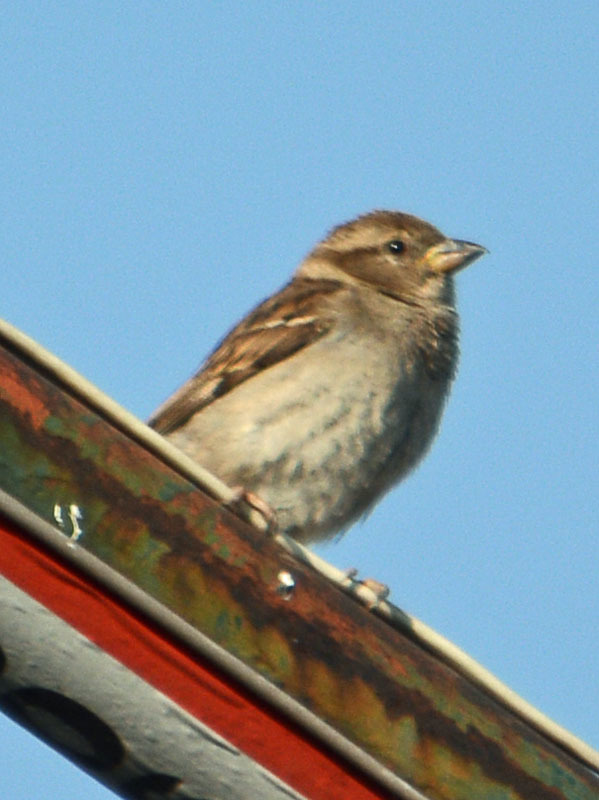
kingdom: Animalia
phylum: Chordata
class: Aves
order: Passeriformes
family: Passeridae
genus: Passer
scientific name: Passer domesticus
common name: House sparrow
